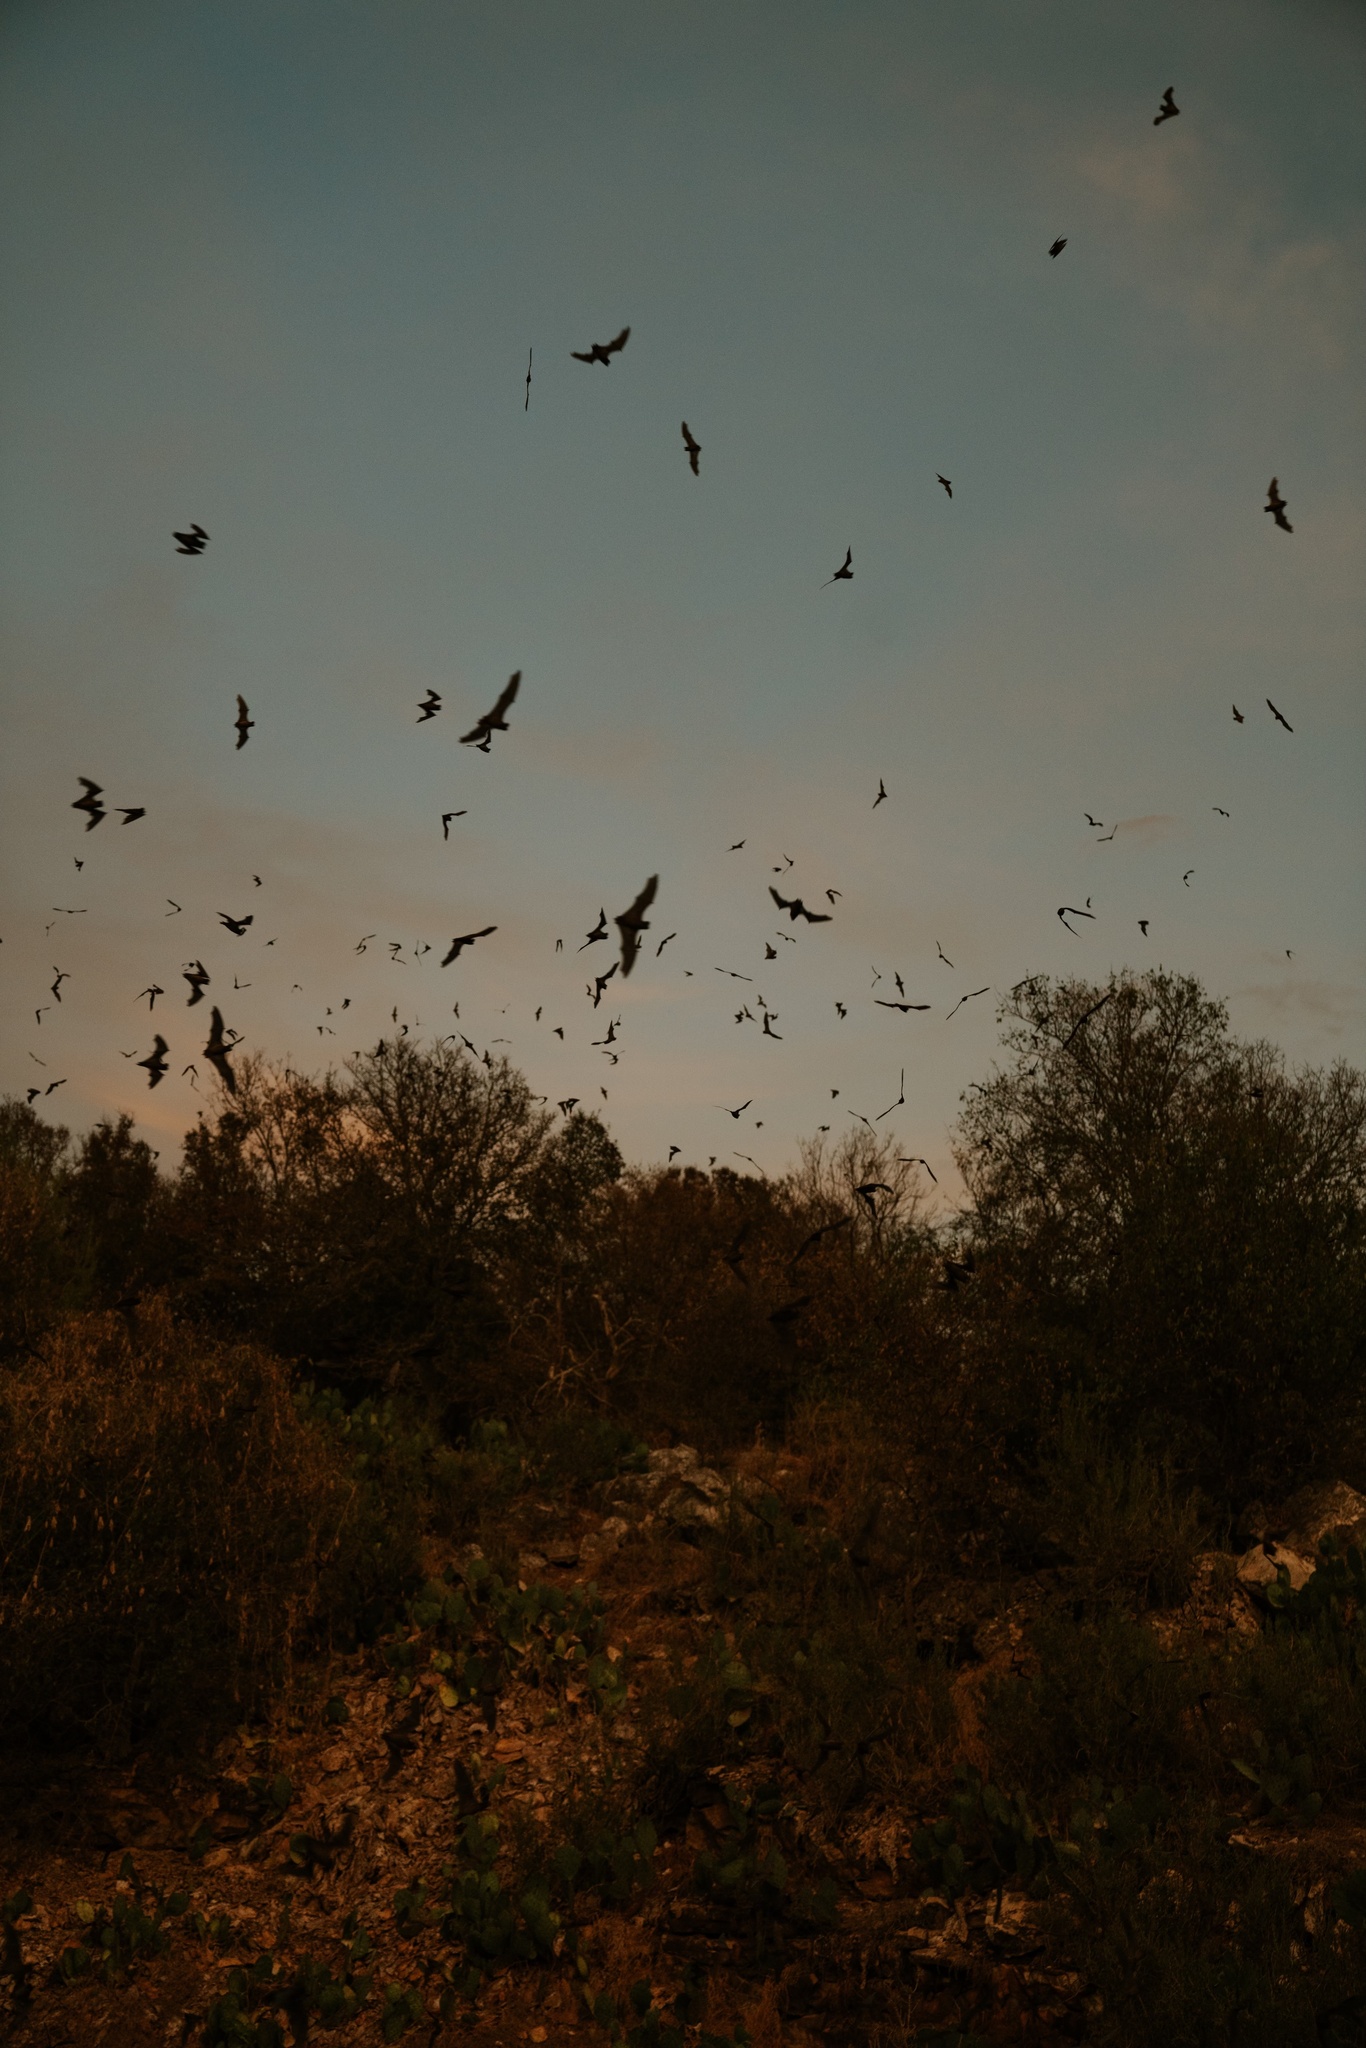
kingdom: Animalia
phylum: Chordata
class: Mammalia
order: Chiroptera
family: Molossidae
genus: Tadarida
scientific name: Tadarida brasiliensis
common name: Mexican free-tailed bat
